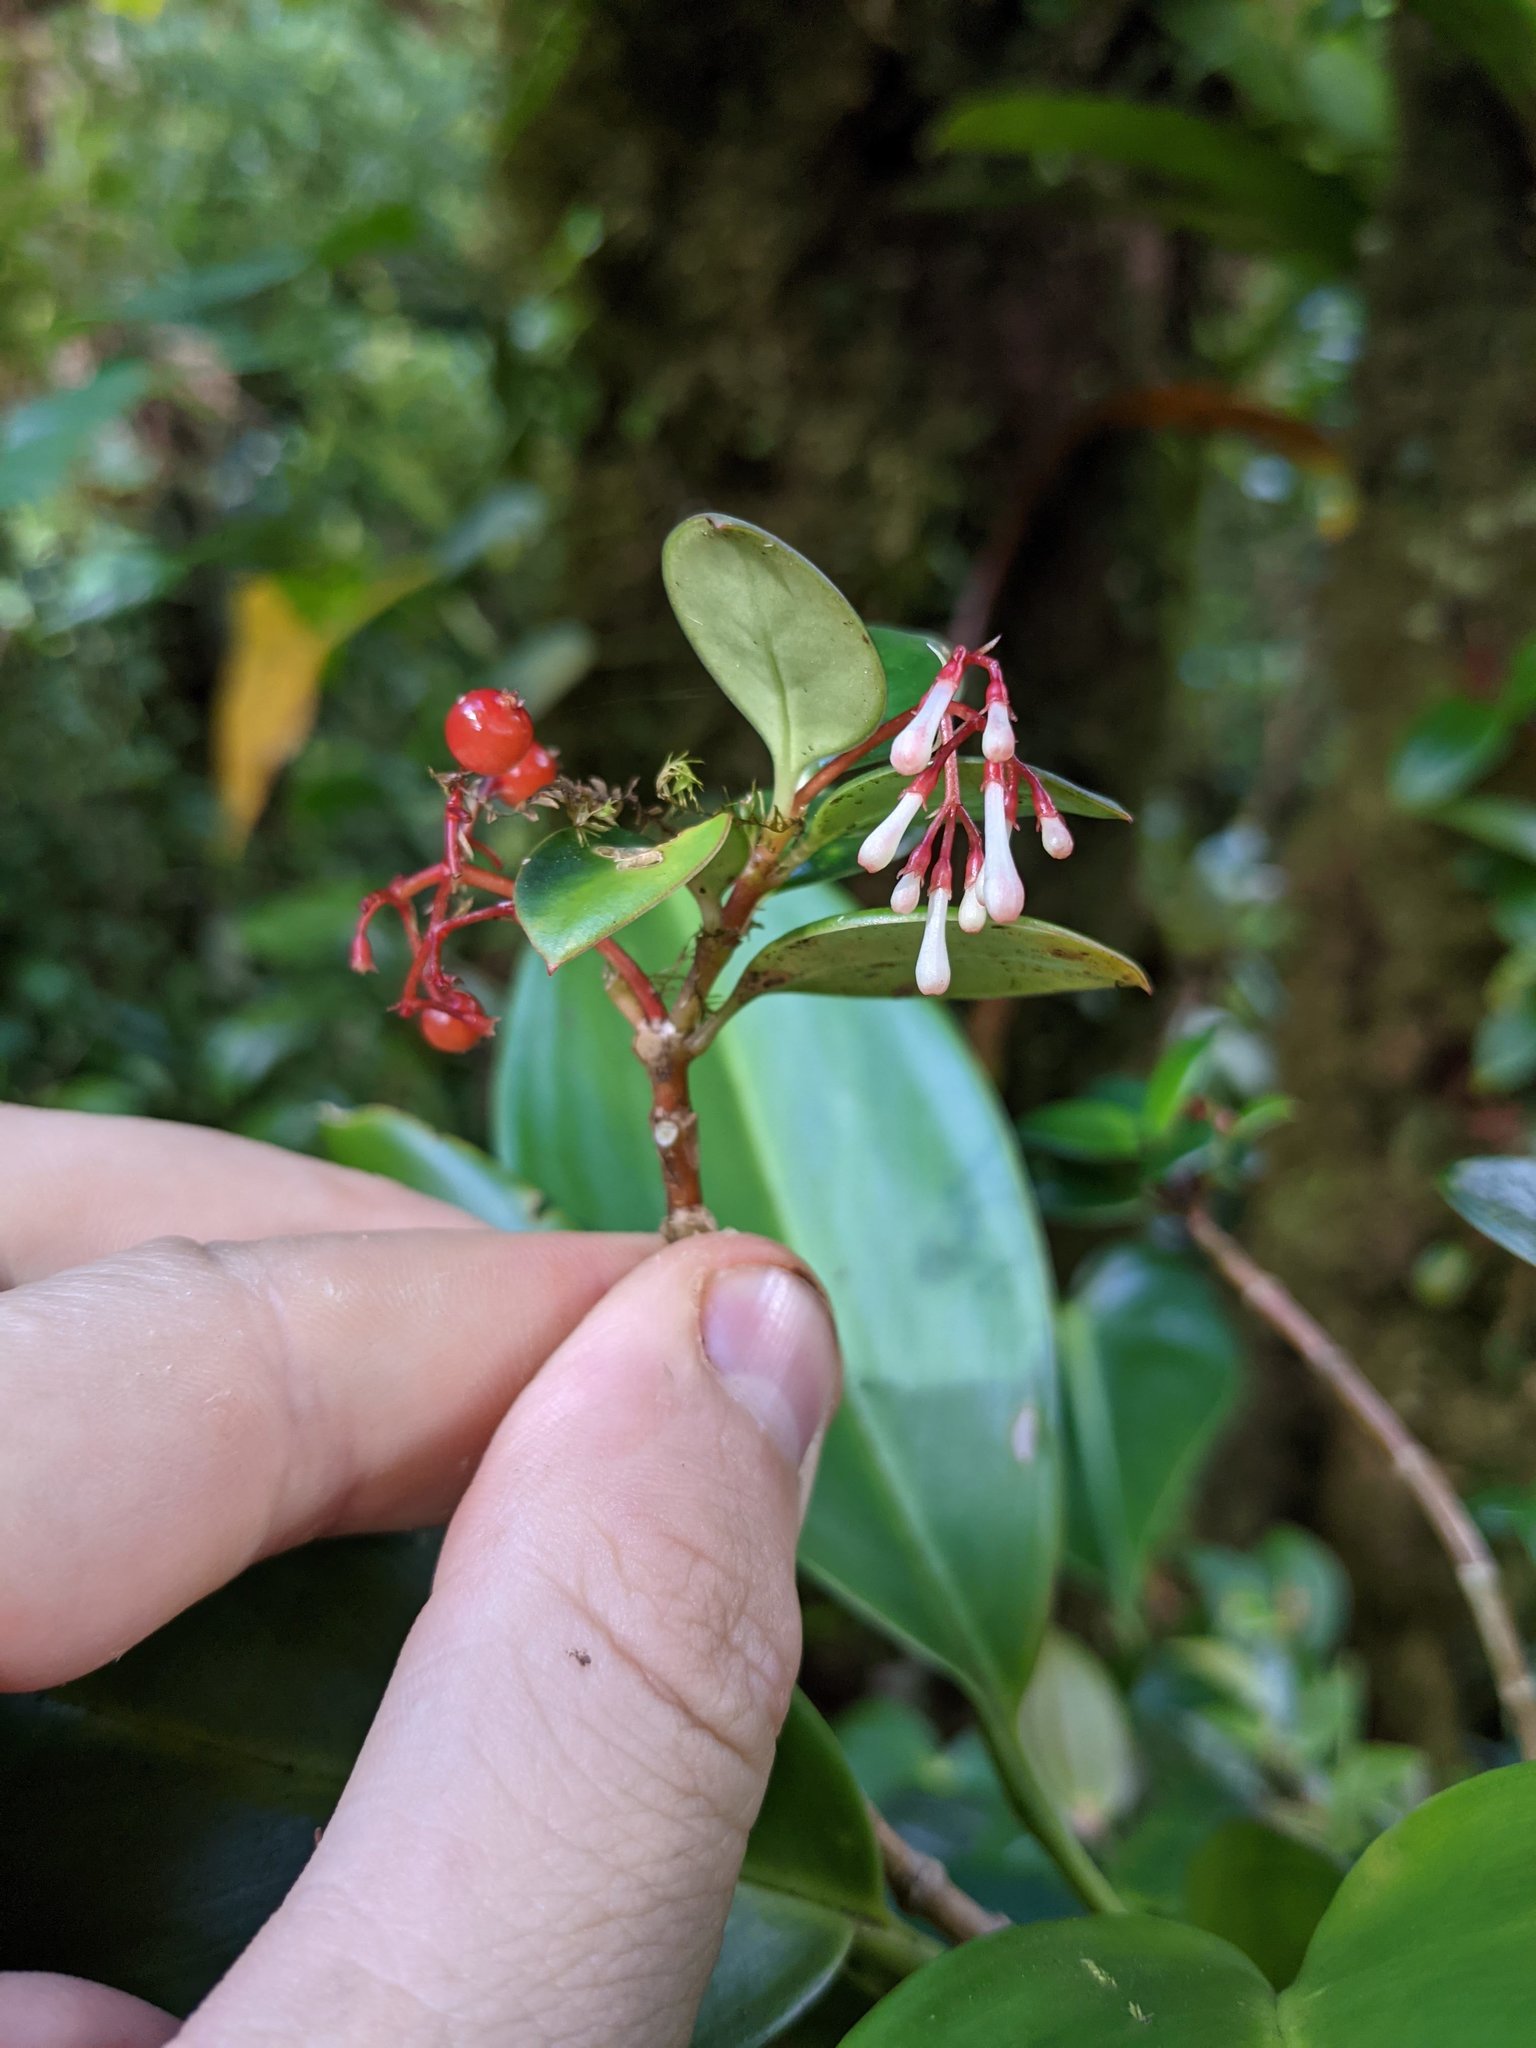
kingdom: Plantae
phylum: Tracheophyta
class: Magnoliopsida
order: Gentianales
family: Rubiaceae
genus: Notopleura
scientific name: Notopleura peperomiae
